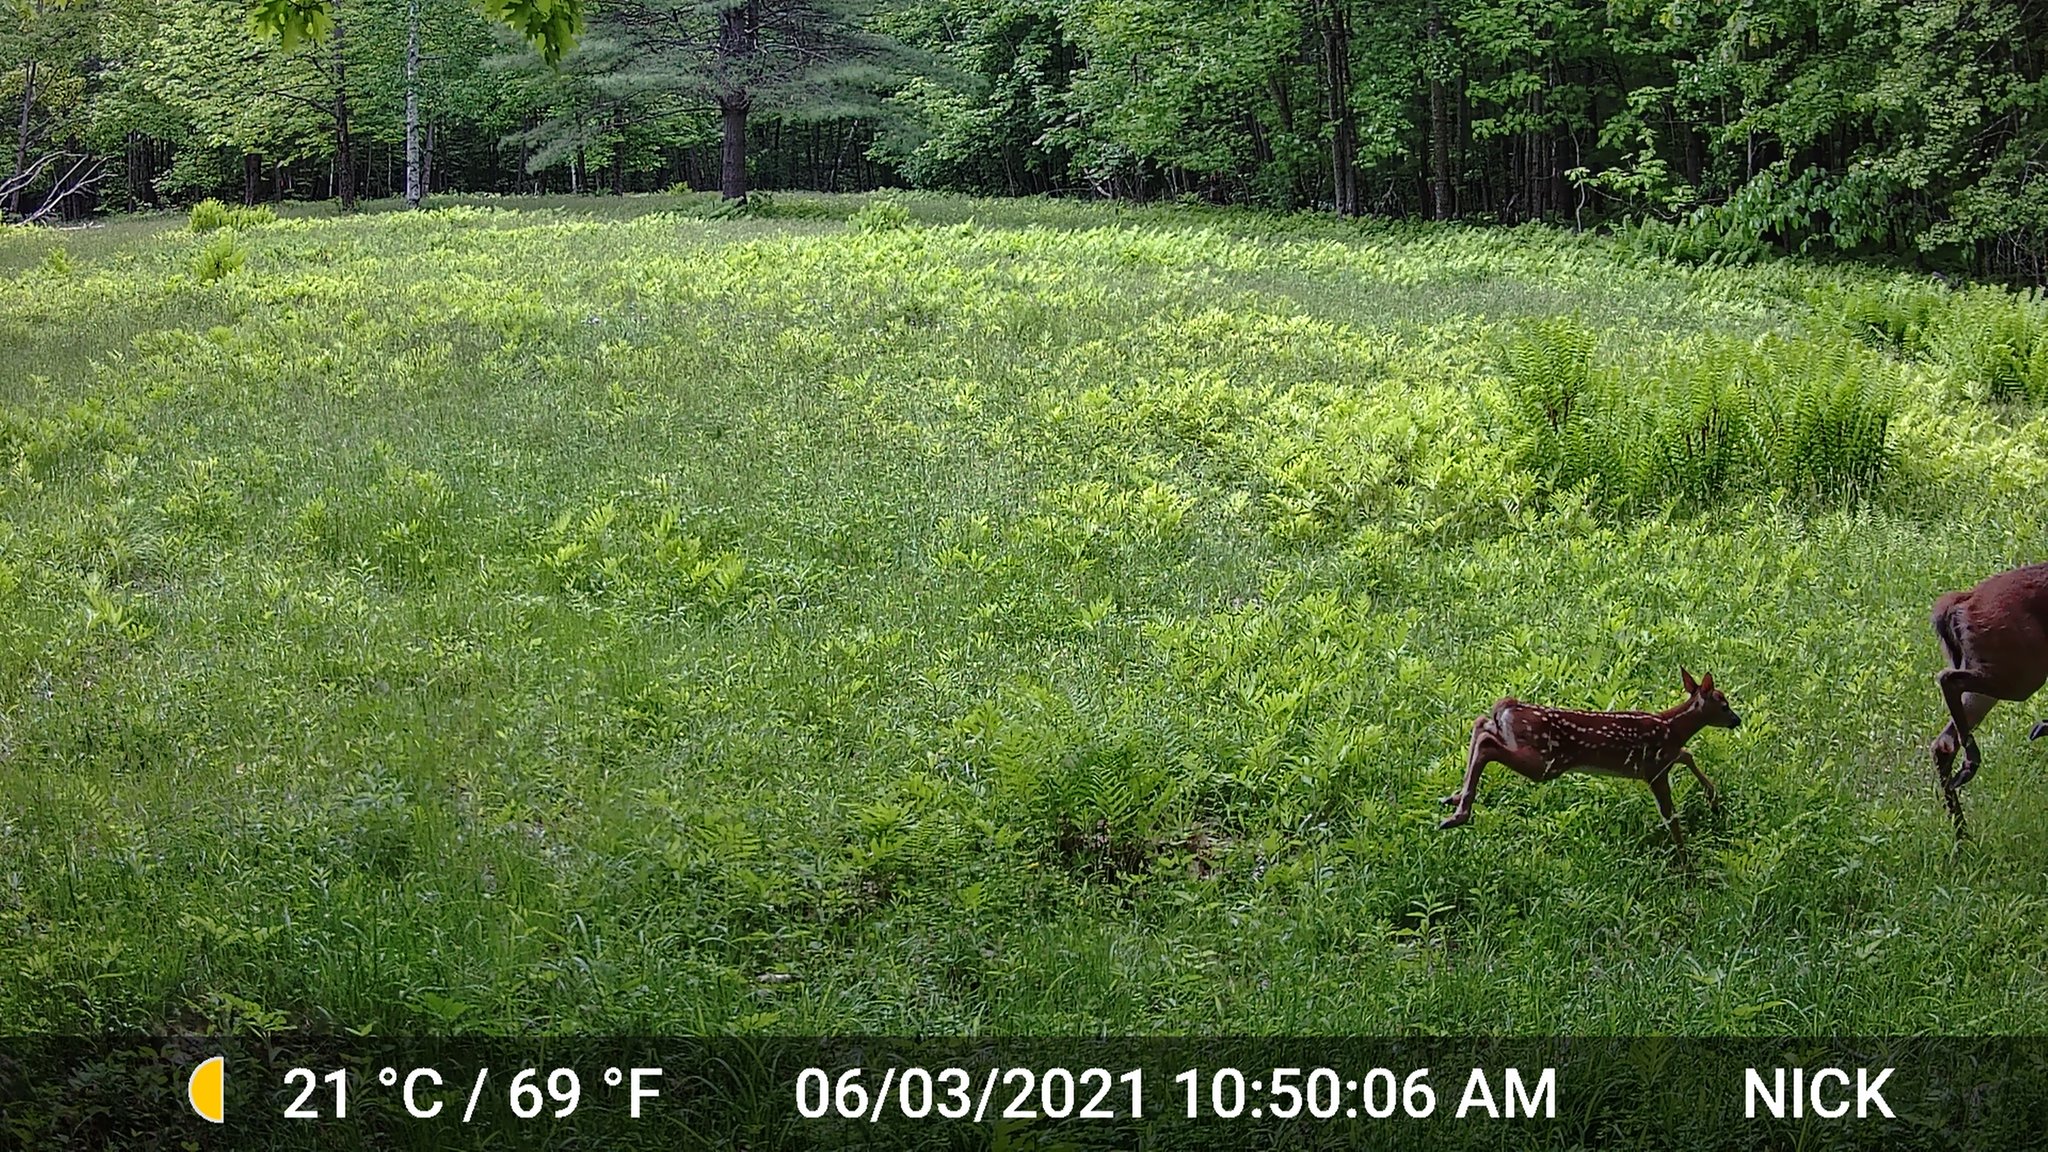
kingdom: Animalia
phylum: Chordata
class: Mammalia
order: Artiodactyla
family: Cervidae
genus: Odocoileus
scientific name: Odocoileus virginianus
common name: White-tailed deer
